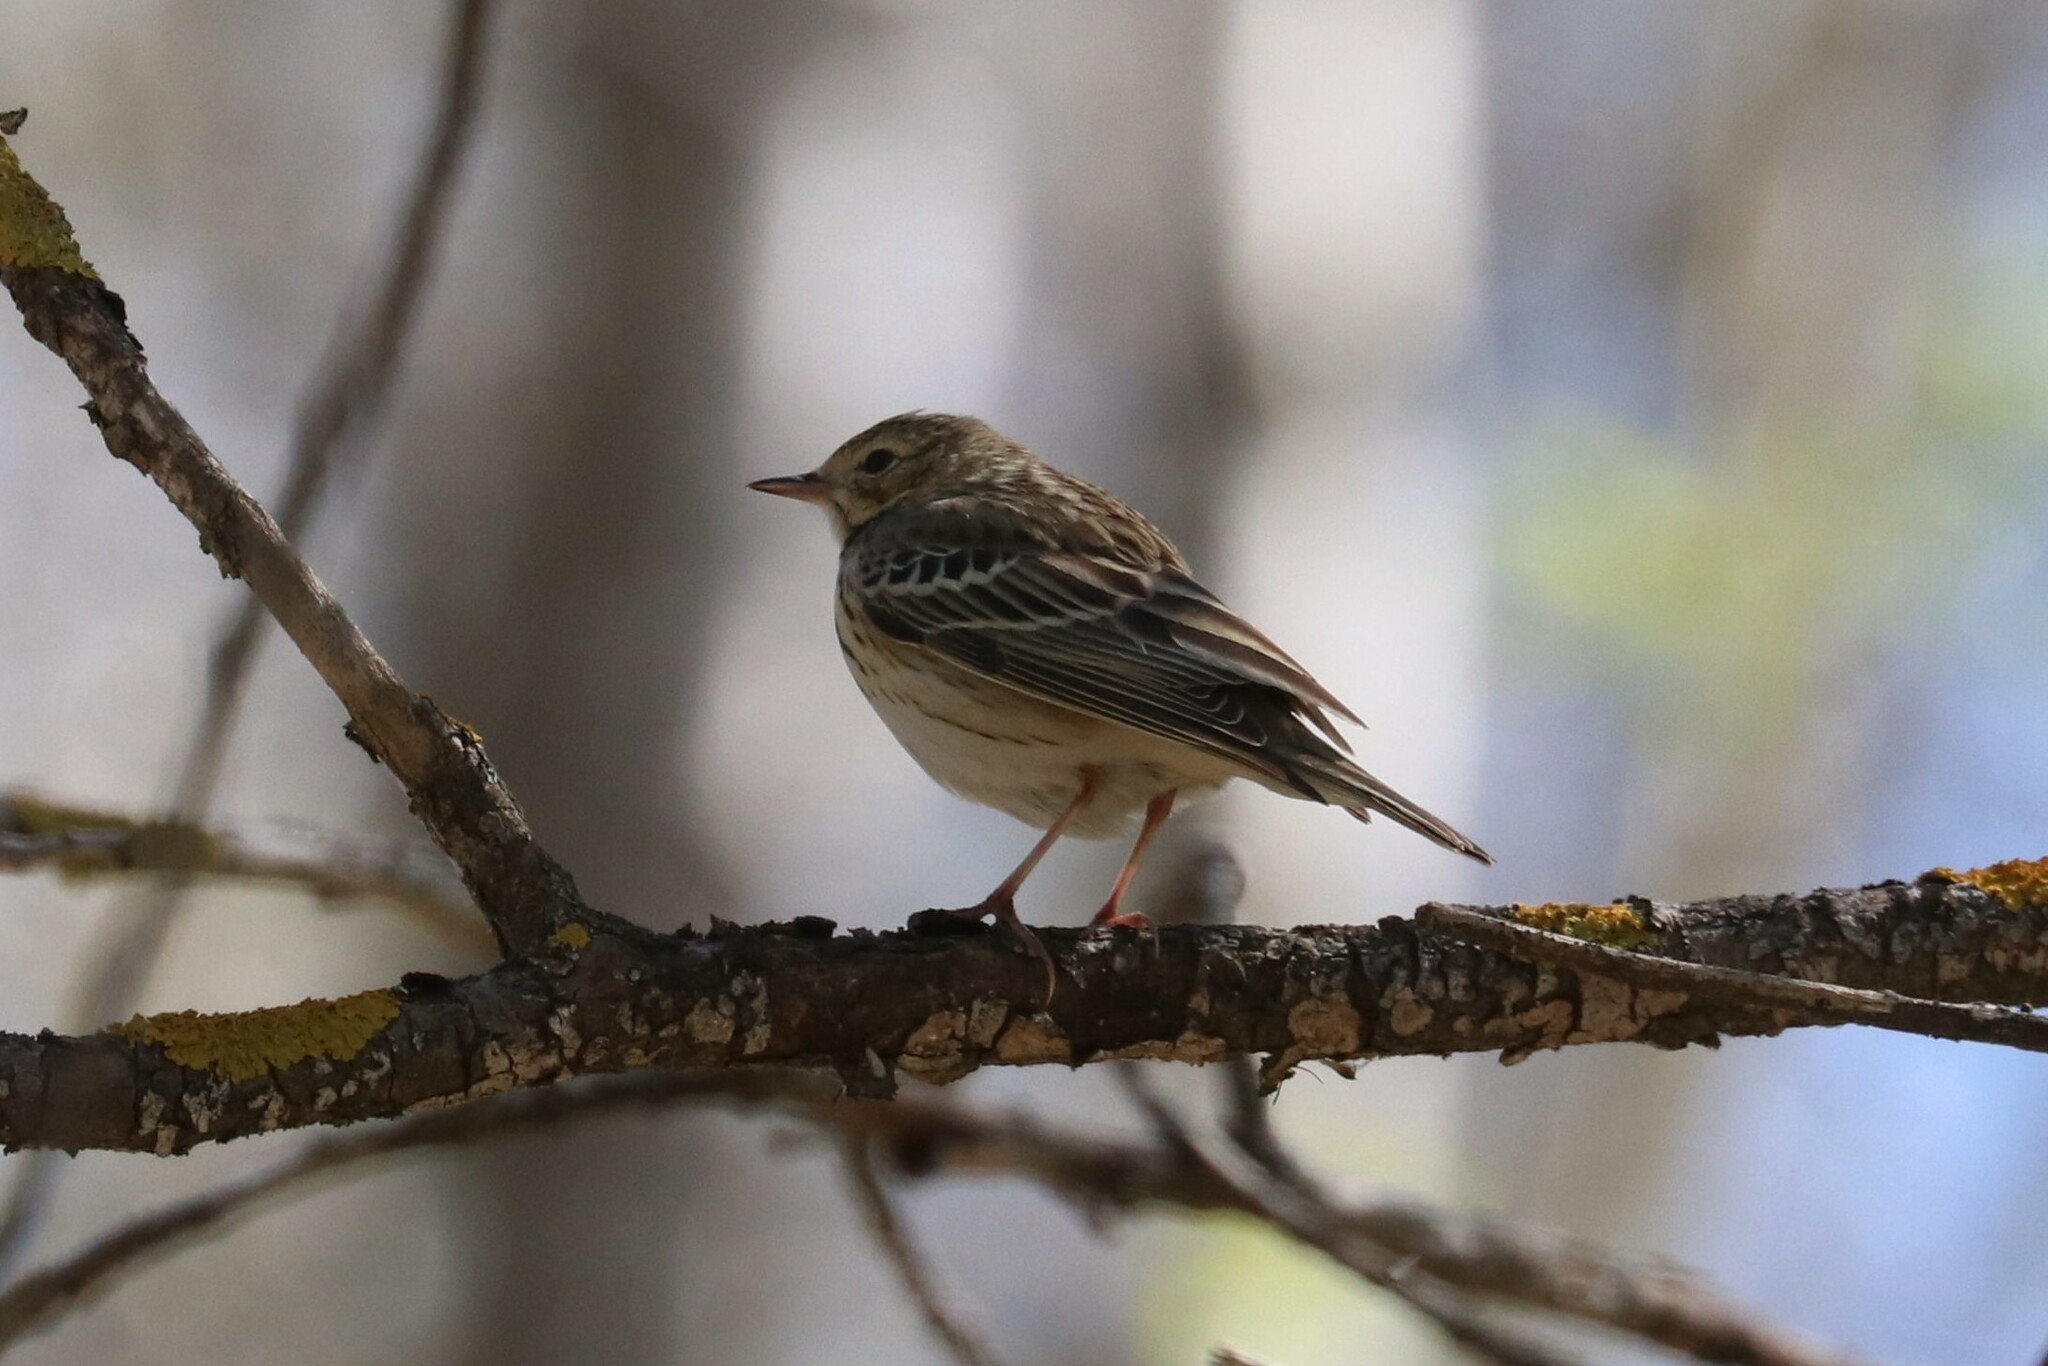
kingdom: Animalia
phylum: Chordata
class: Aves
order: Passeriformes
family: Motacillidae
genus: Anthus
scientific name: Anthus trivialis
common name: Tree pipit
